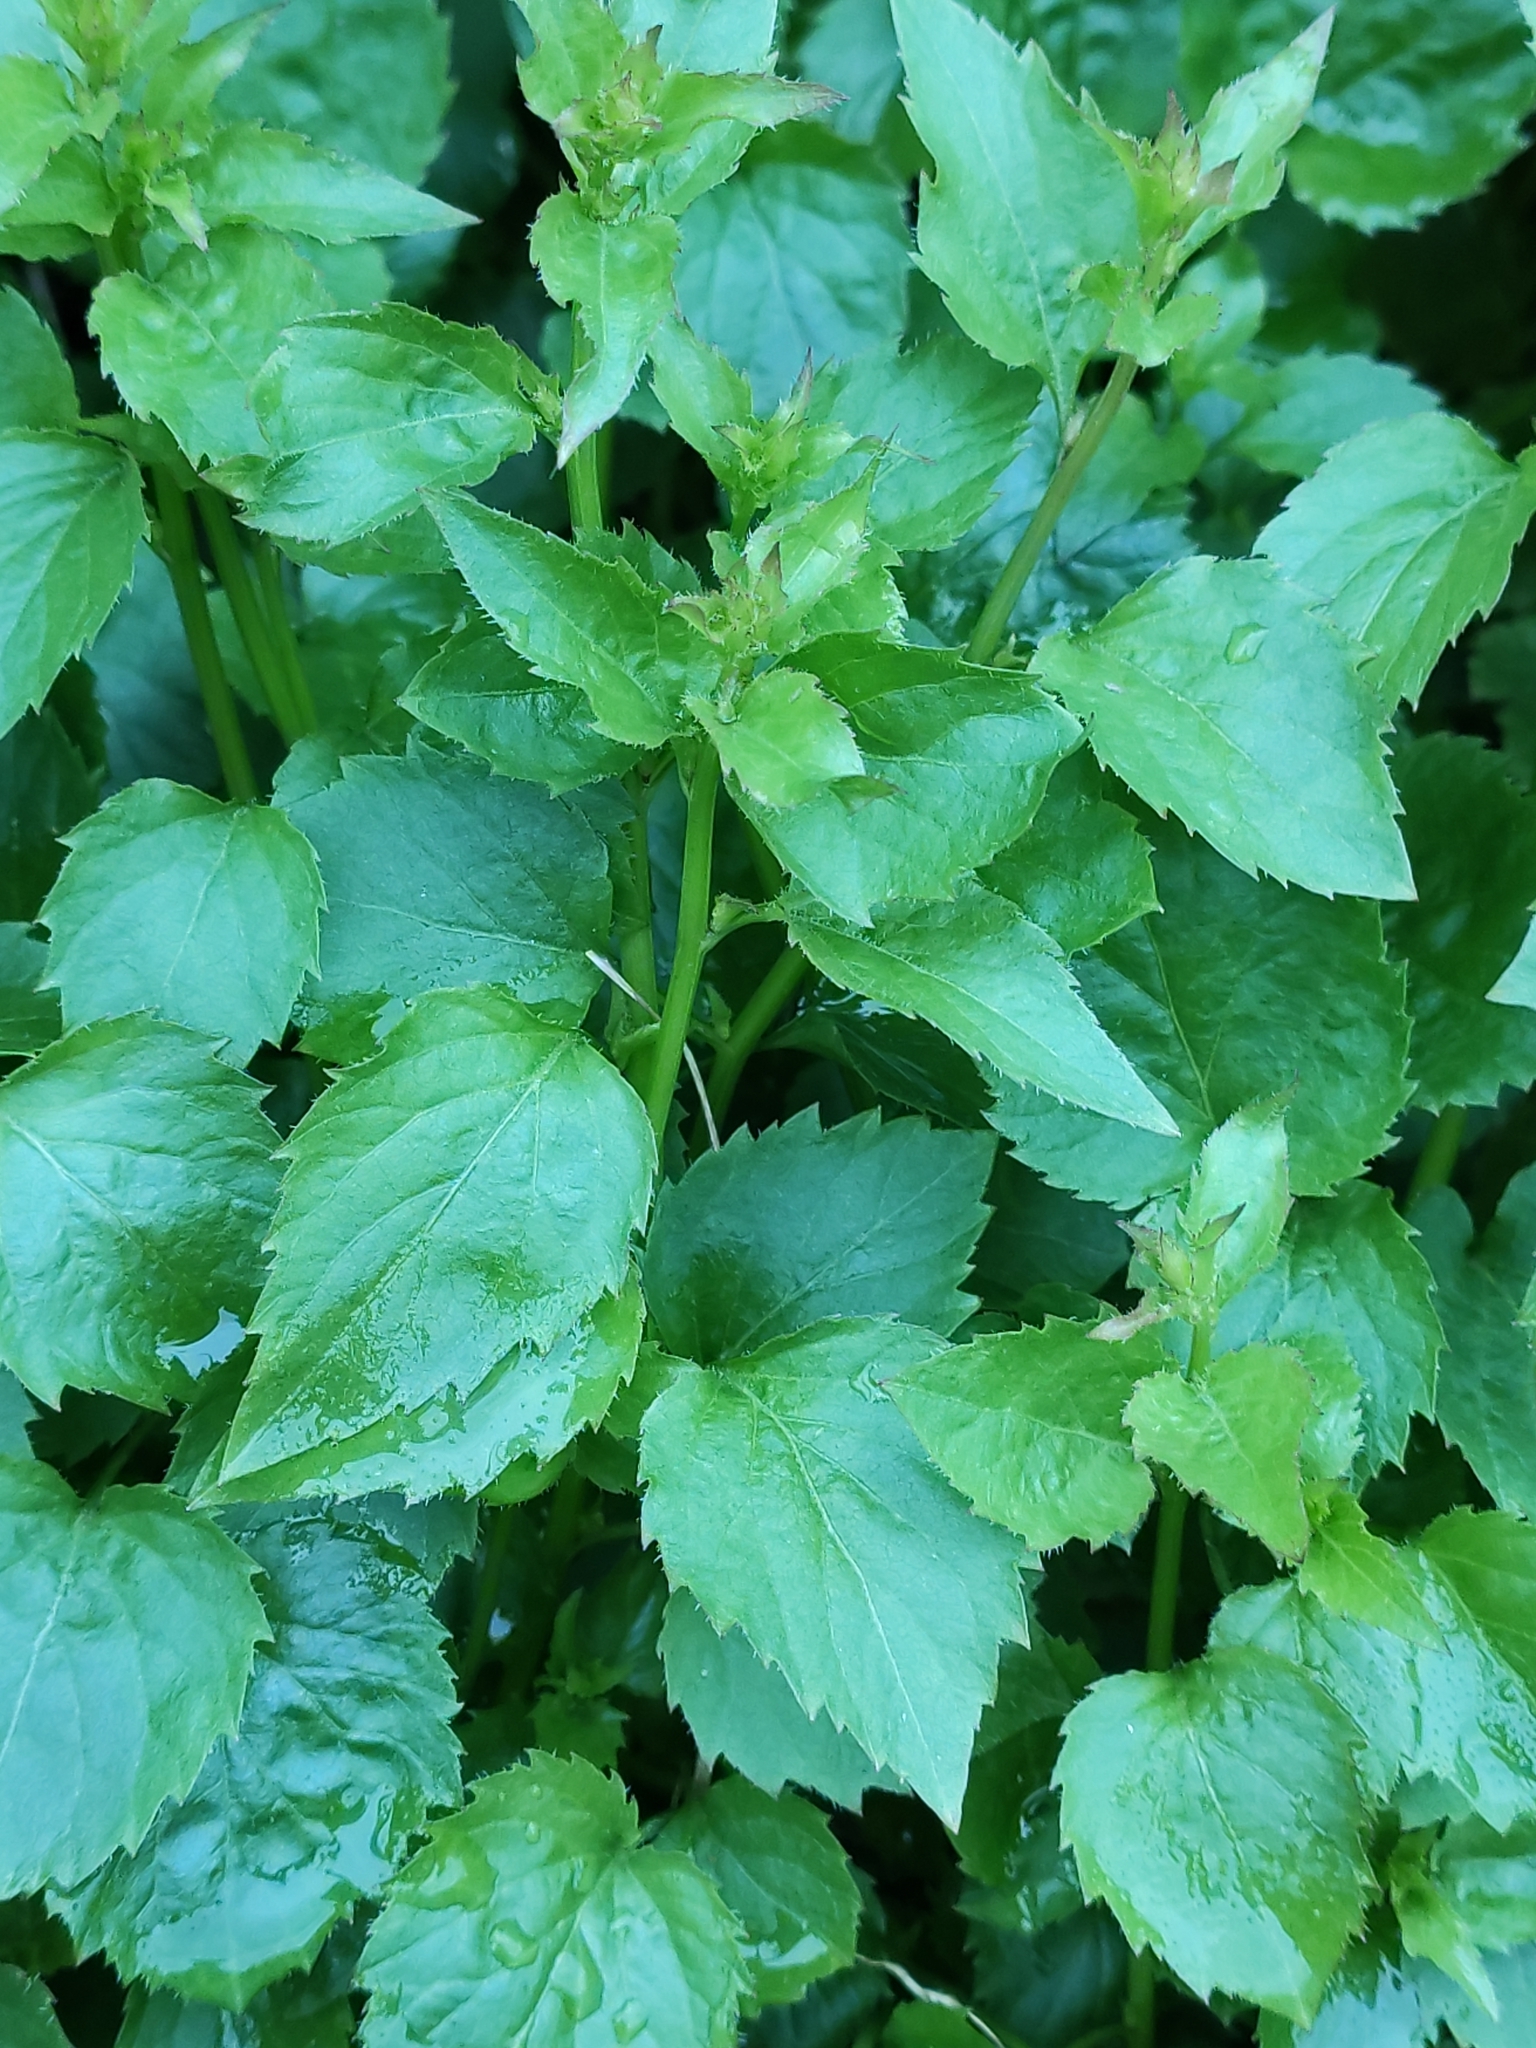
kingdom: Plantae
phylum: Tracheophyta
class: Magnoliopsida
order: Asterales
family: Campanulaceae
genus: Campanula
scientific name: Campanula poscharskyana
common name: Trailing bellflower
